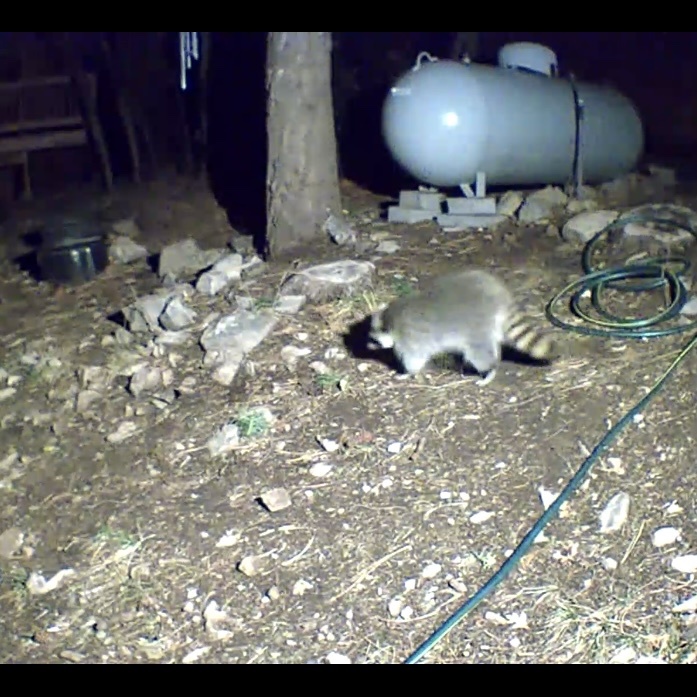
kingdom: Animalia
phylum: Chordata
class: Mammalia
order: Carnivora
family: Procyonidae
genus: Procyon
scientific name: Procyon lotor
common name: Raccoon
